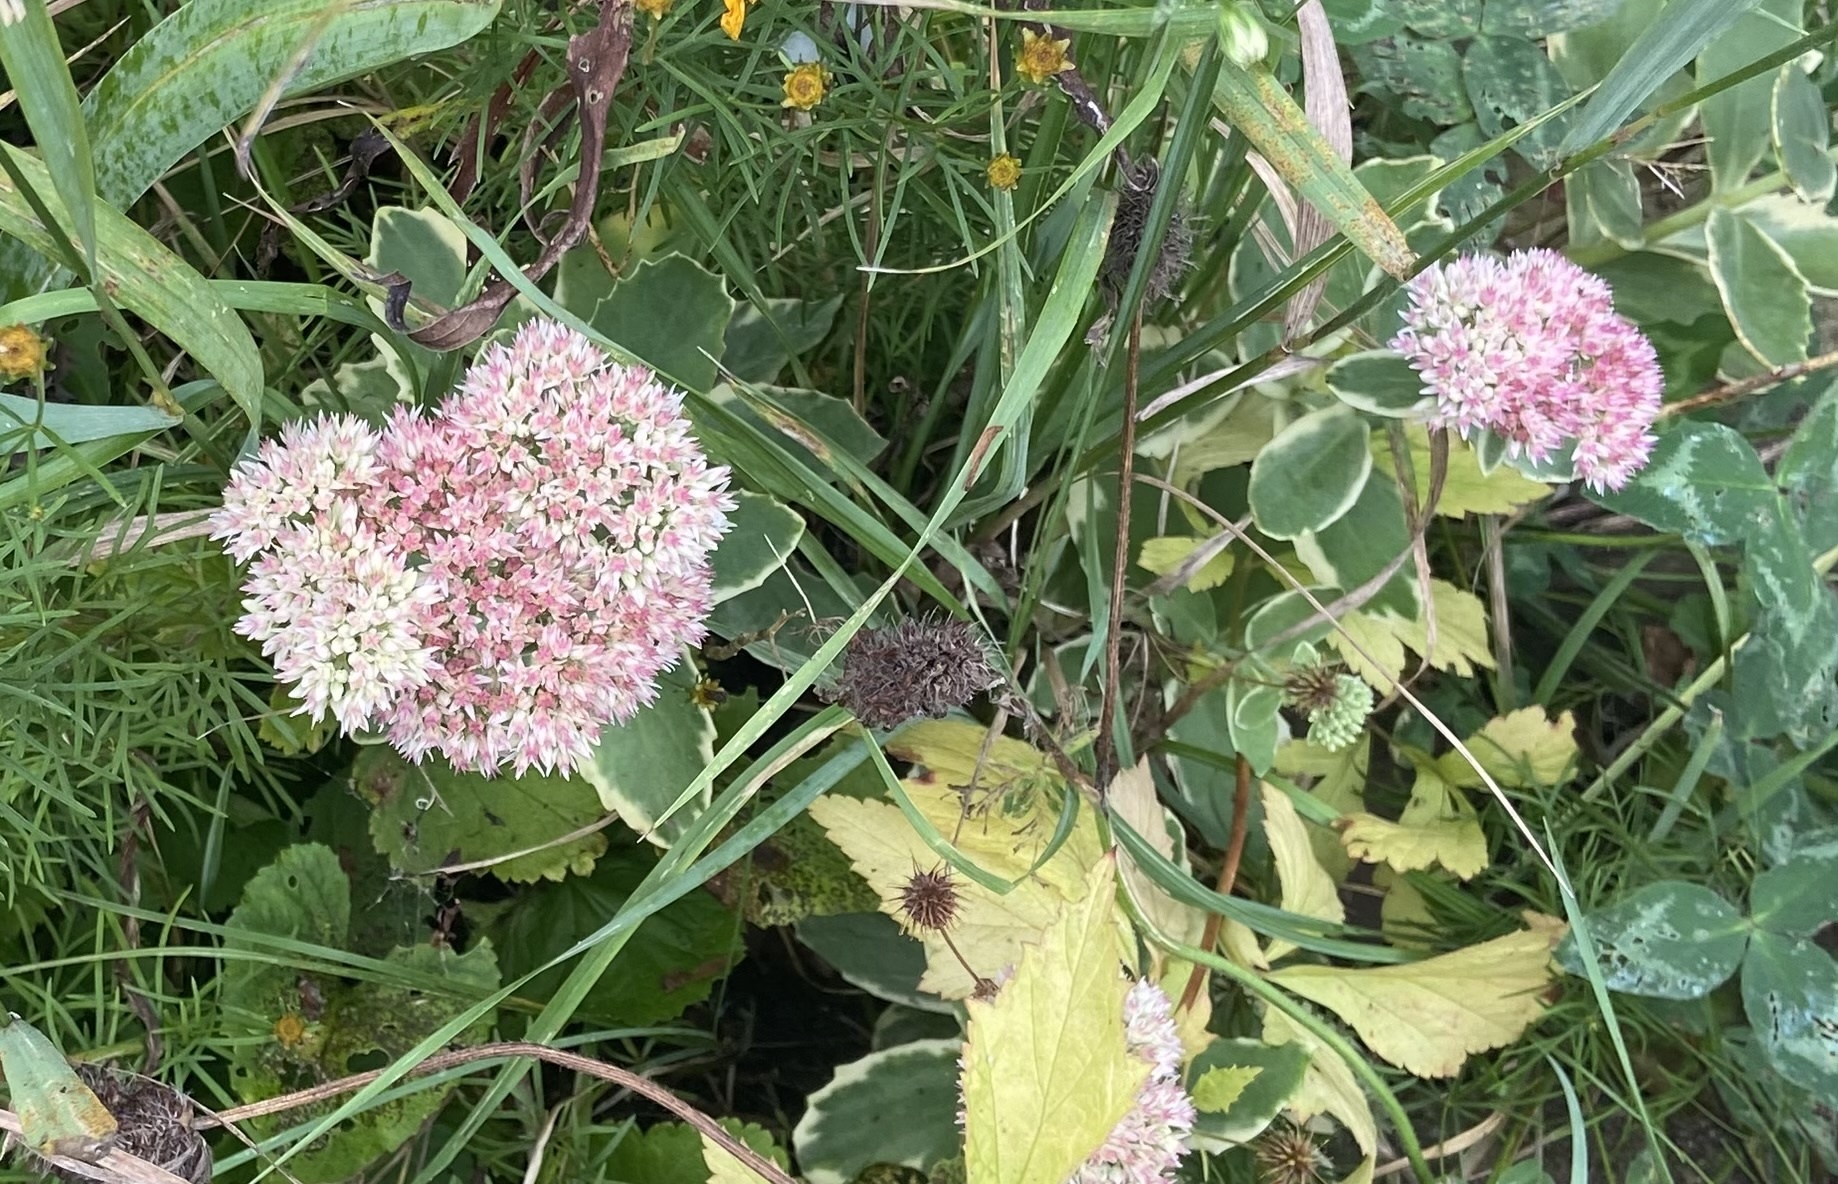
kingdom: Plantae
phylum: Tracheophyta
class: Magnoliopsida
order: Saxifragales
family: Crassulaceae
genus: Hylotelephium
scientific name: Hylotelephium
